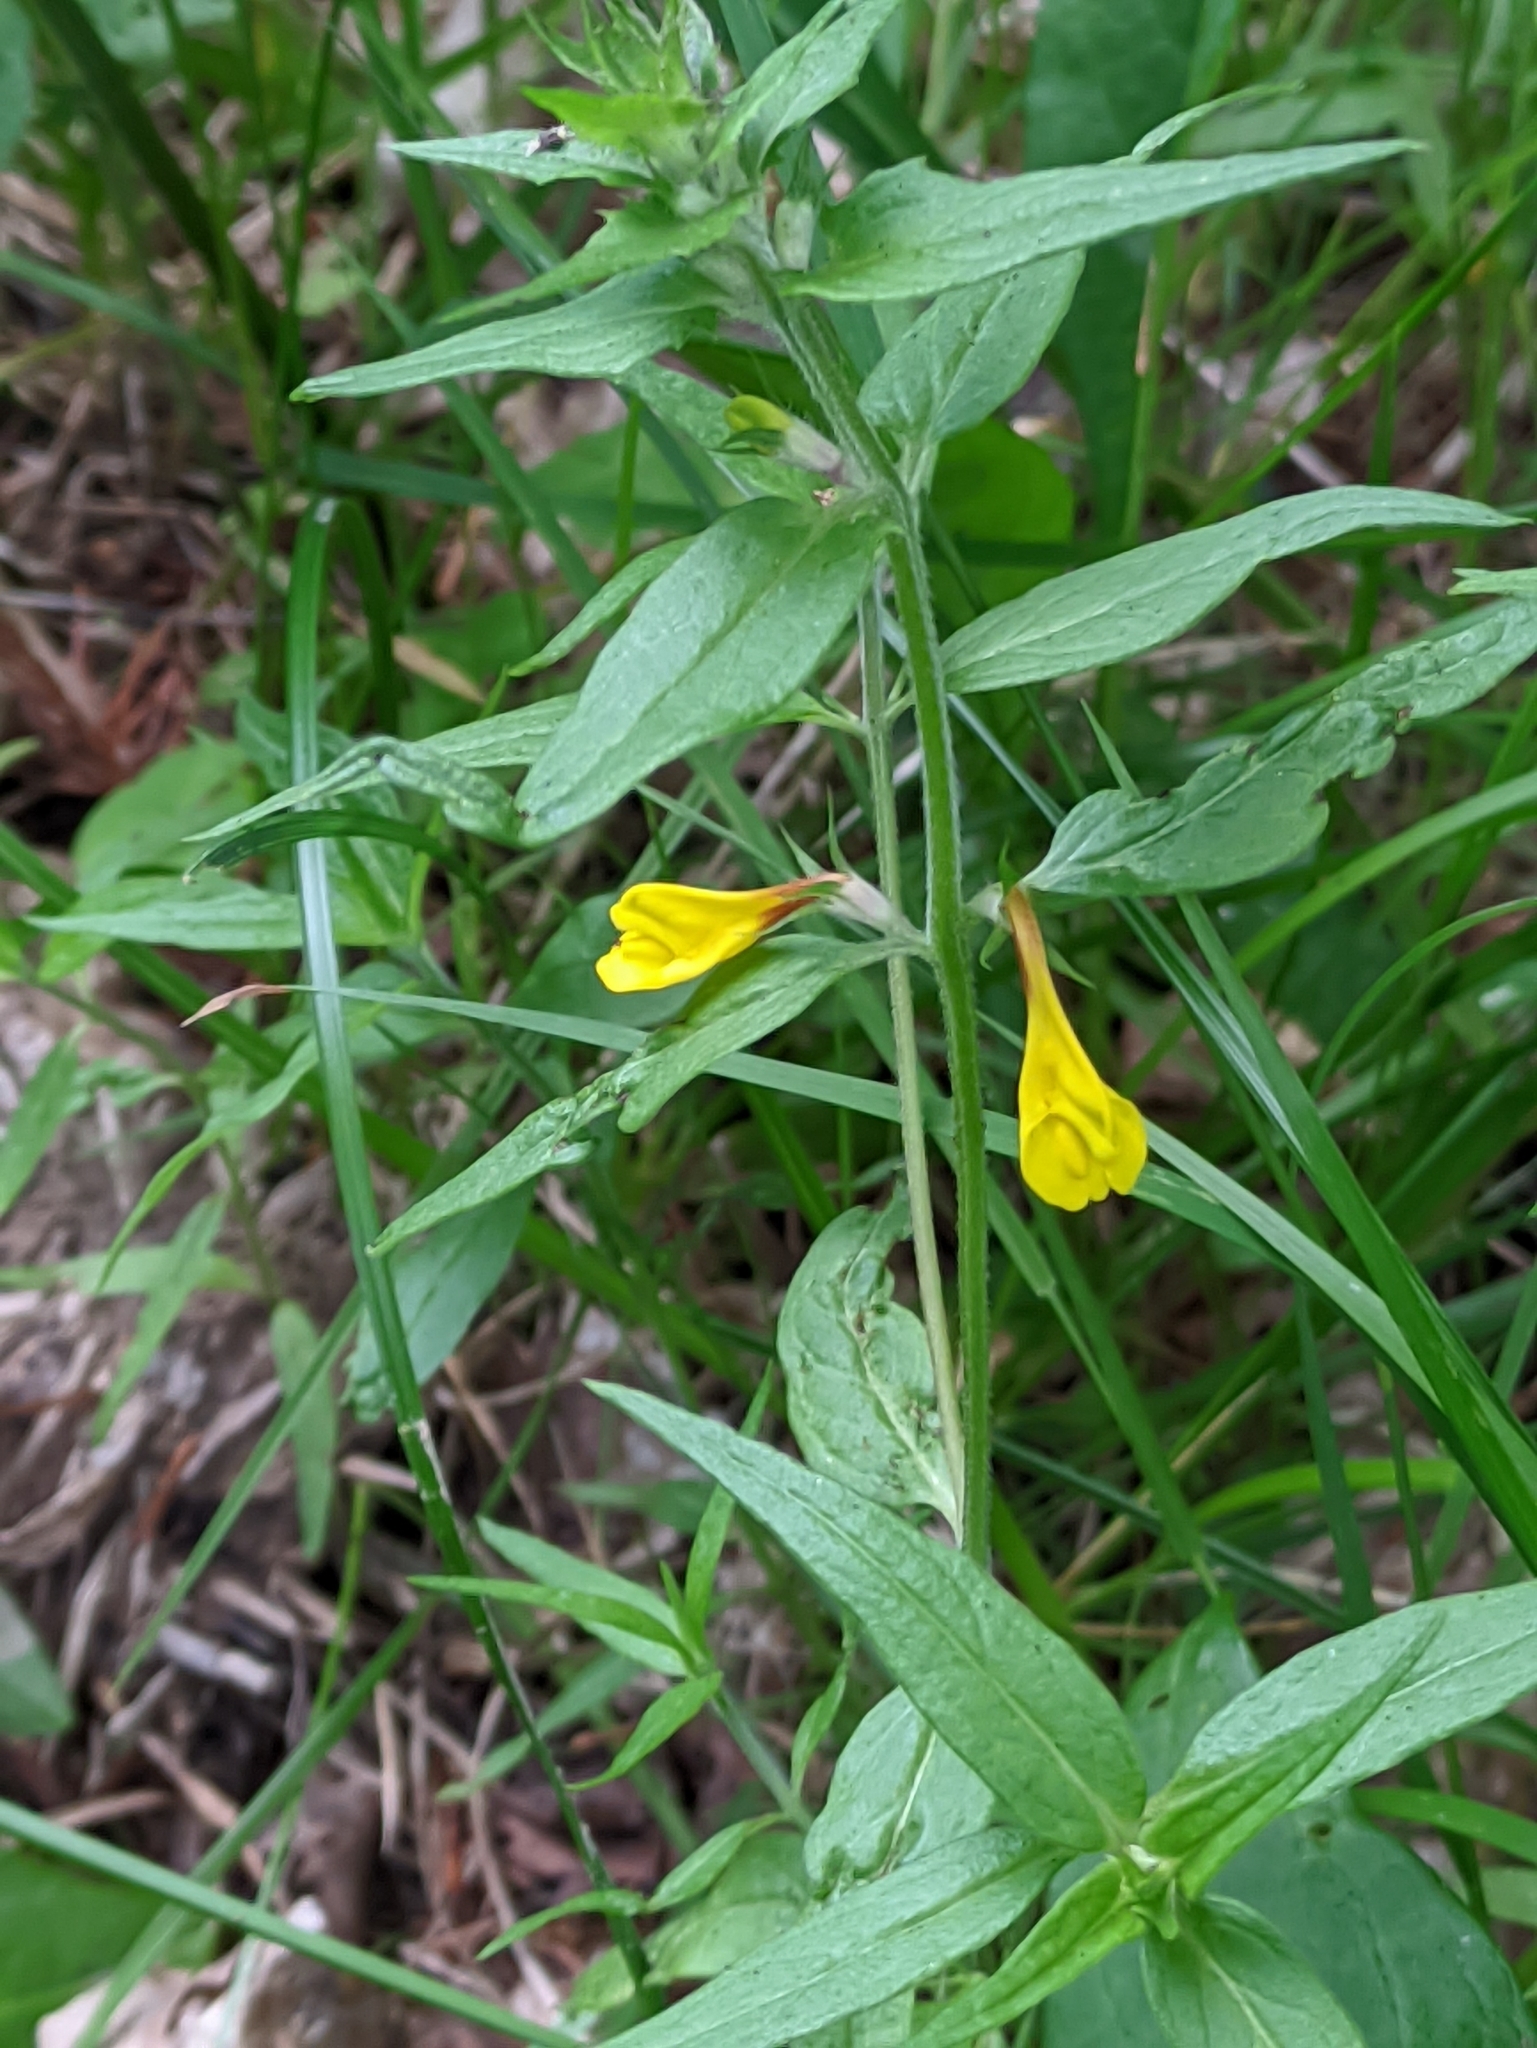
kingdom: Plantae
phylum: Tracheophyta
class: Magnoliopsida
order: Lamiales
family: Orobanchaceae
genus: Melampyrum
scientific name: Melampyrum nemorosum
